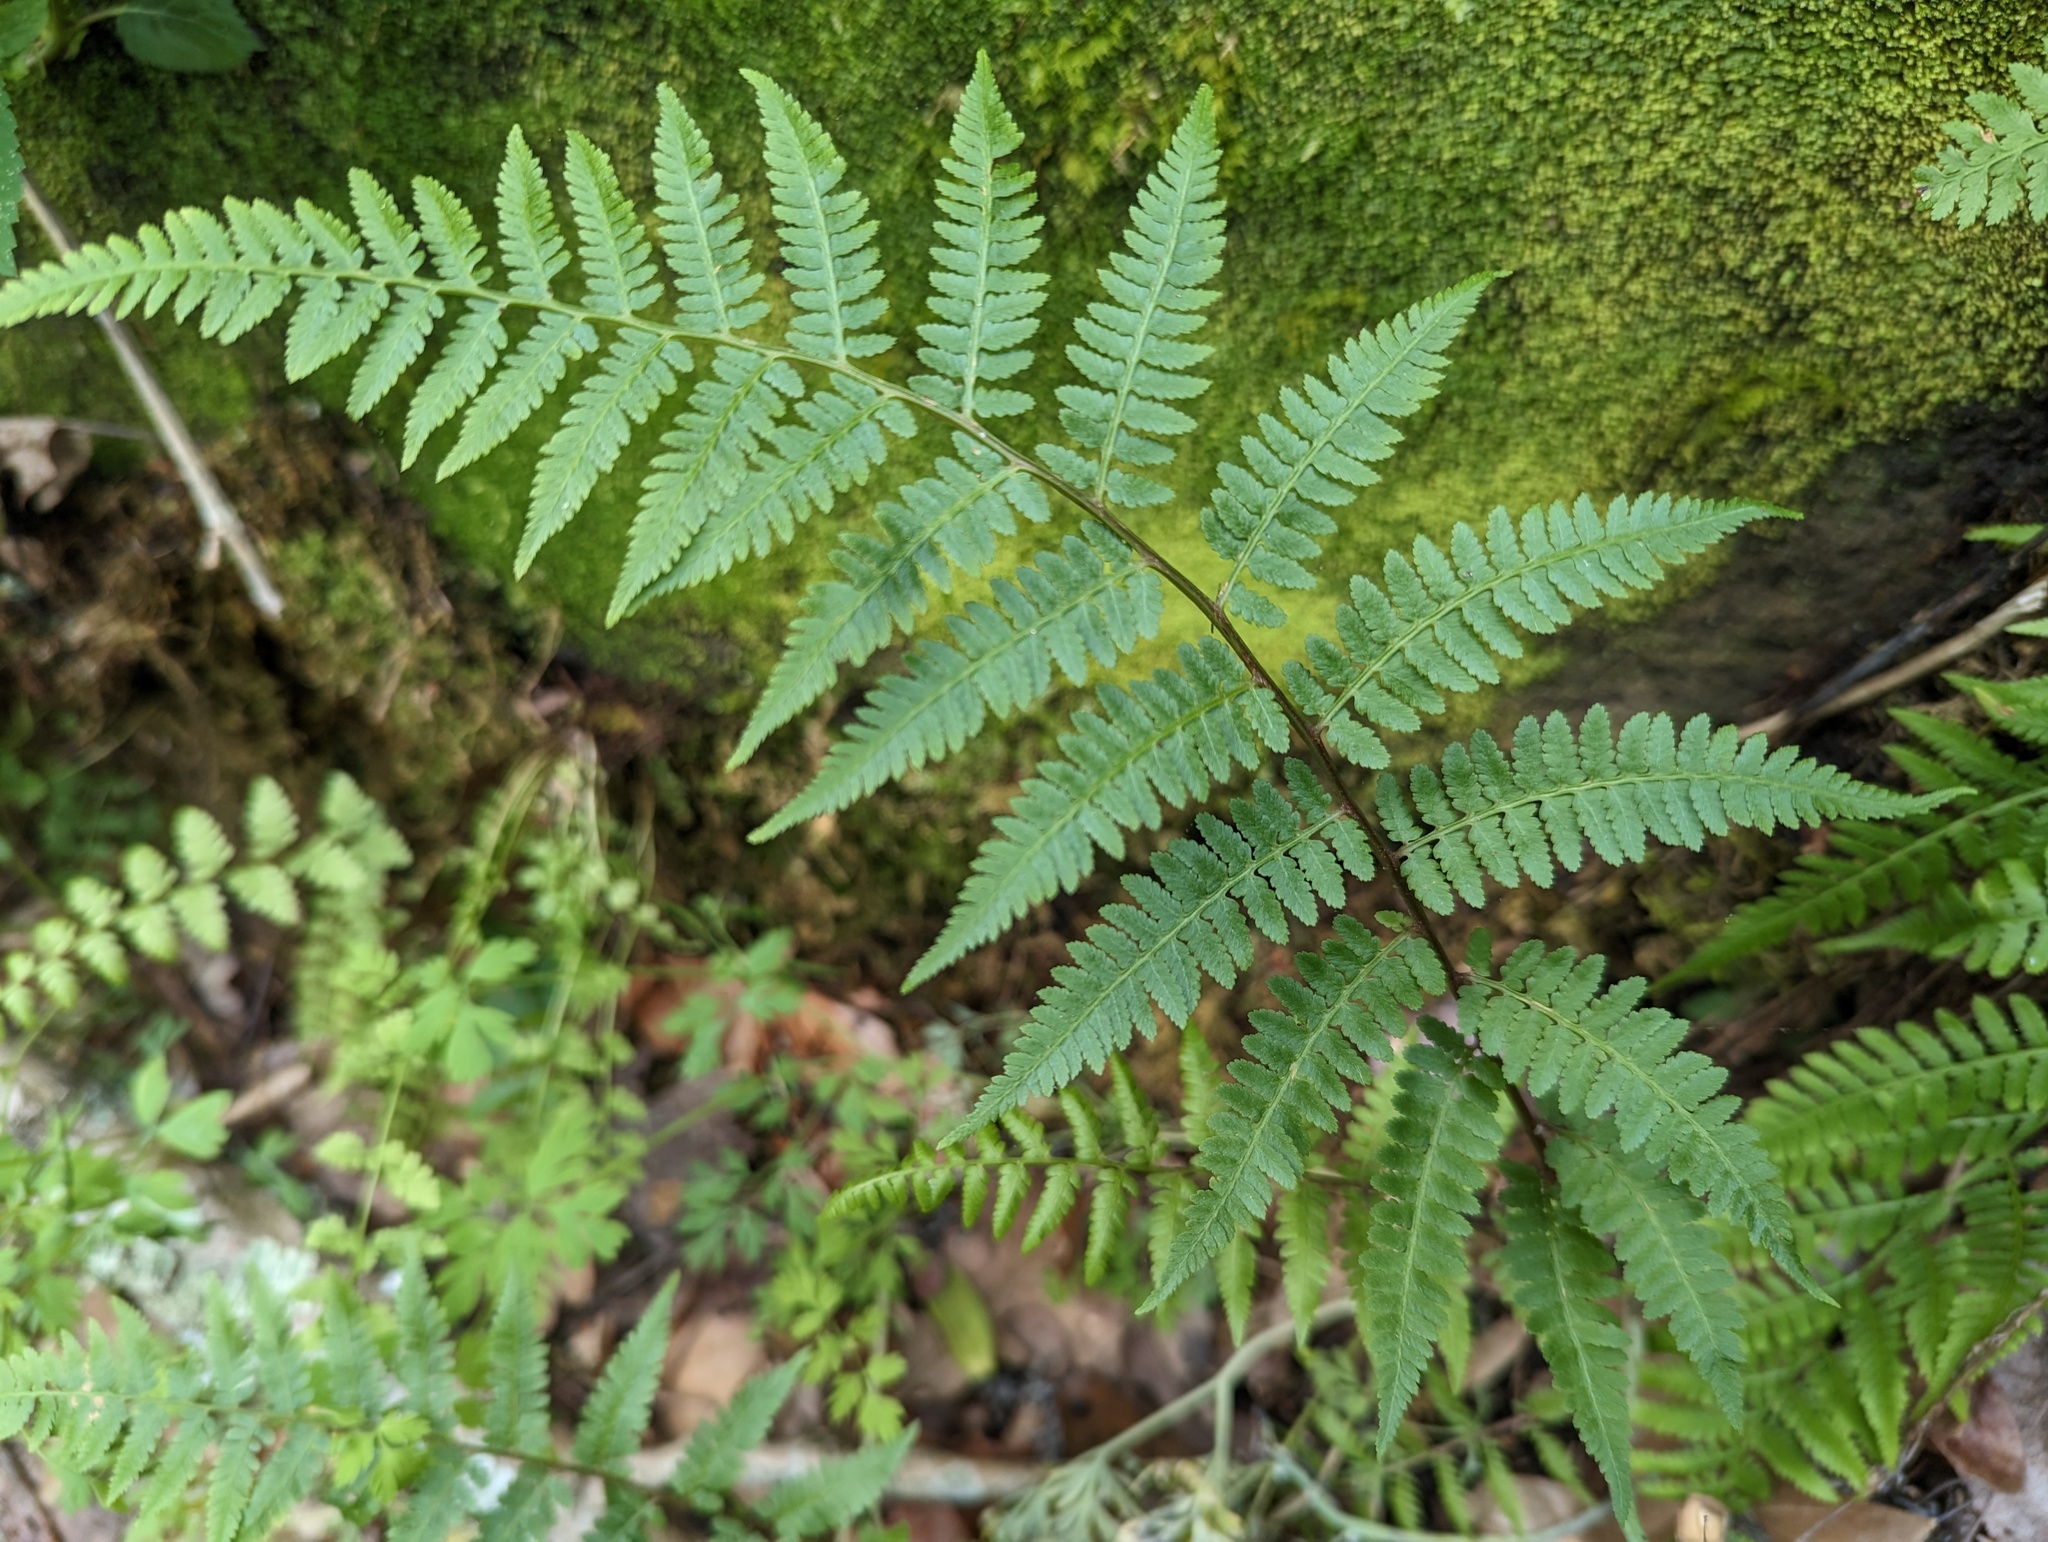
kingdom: Plantae
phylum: Tracheophyta
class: Polypodiopsida
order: Polypodiales
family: Athyriaceae
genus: Athyrium
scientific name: Athyrium asplenioides
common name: Southern lady fern
